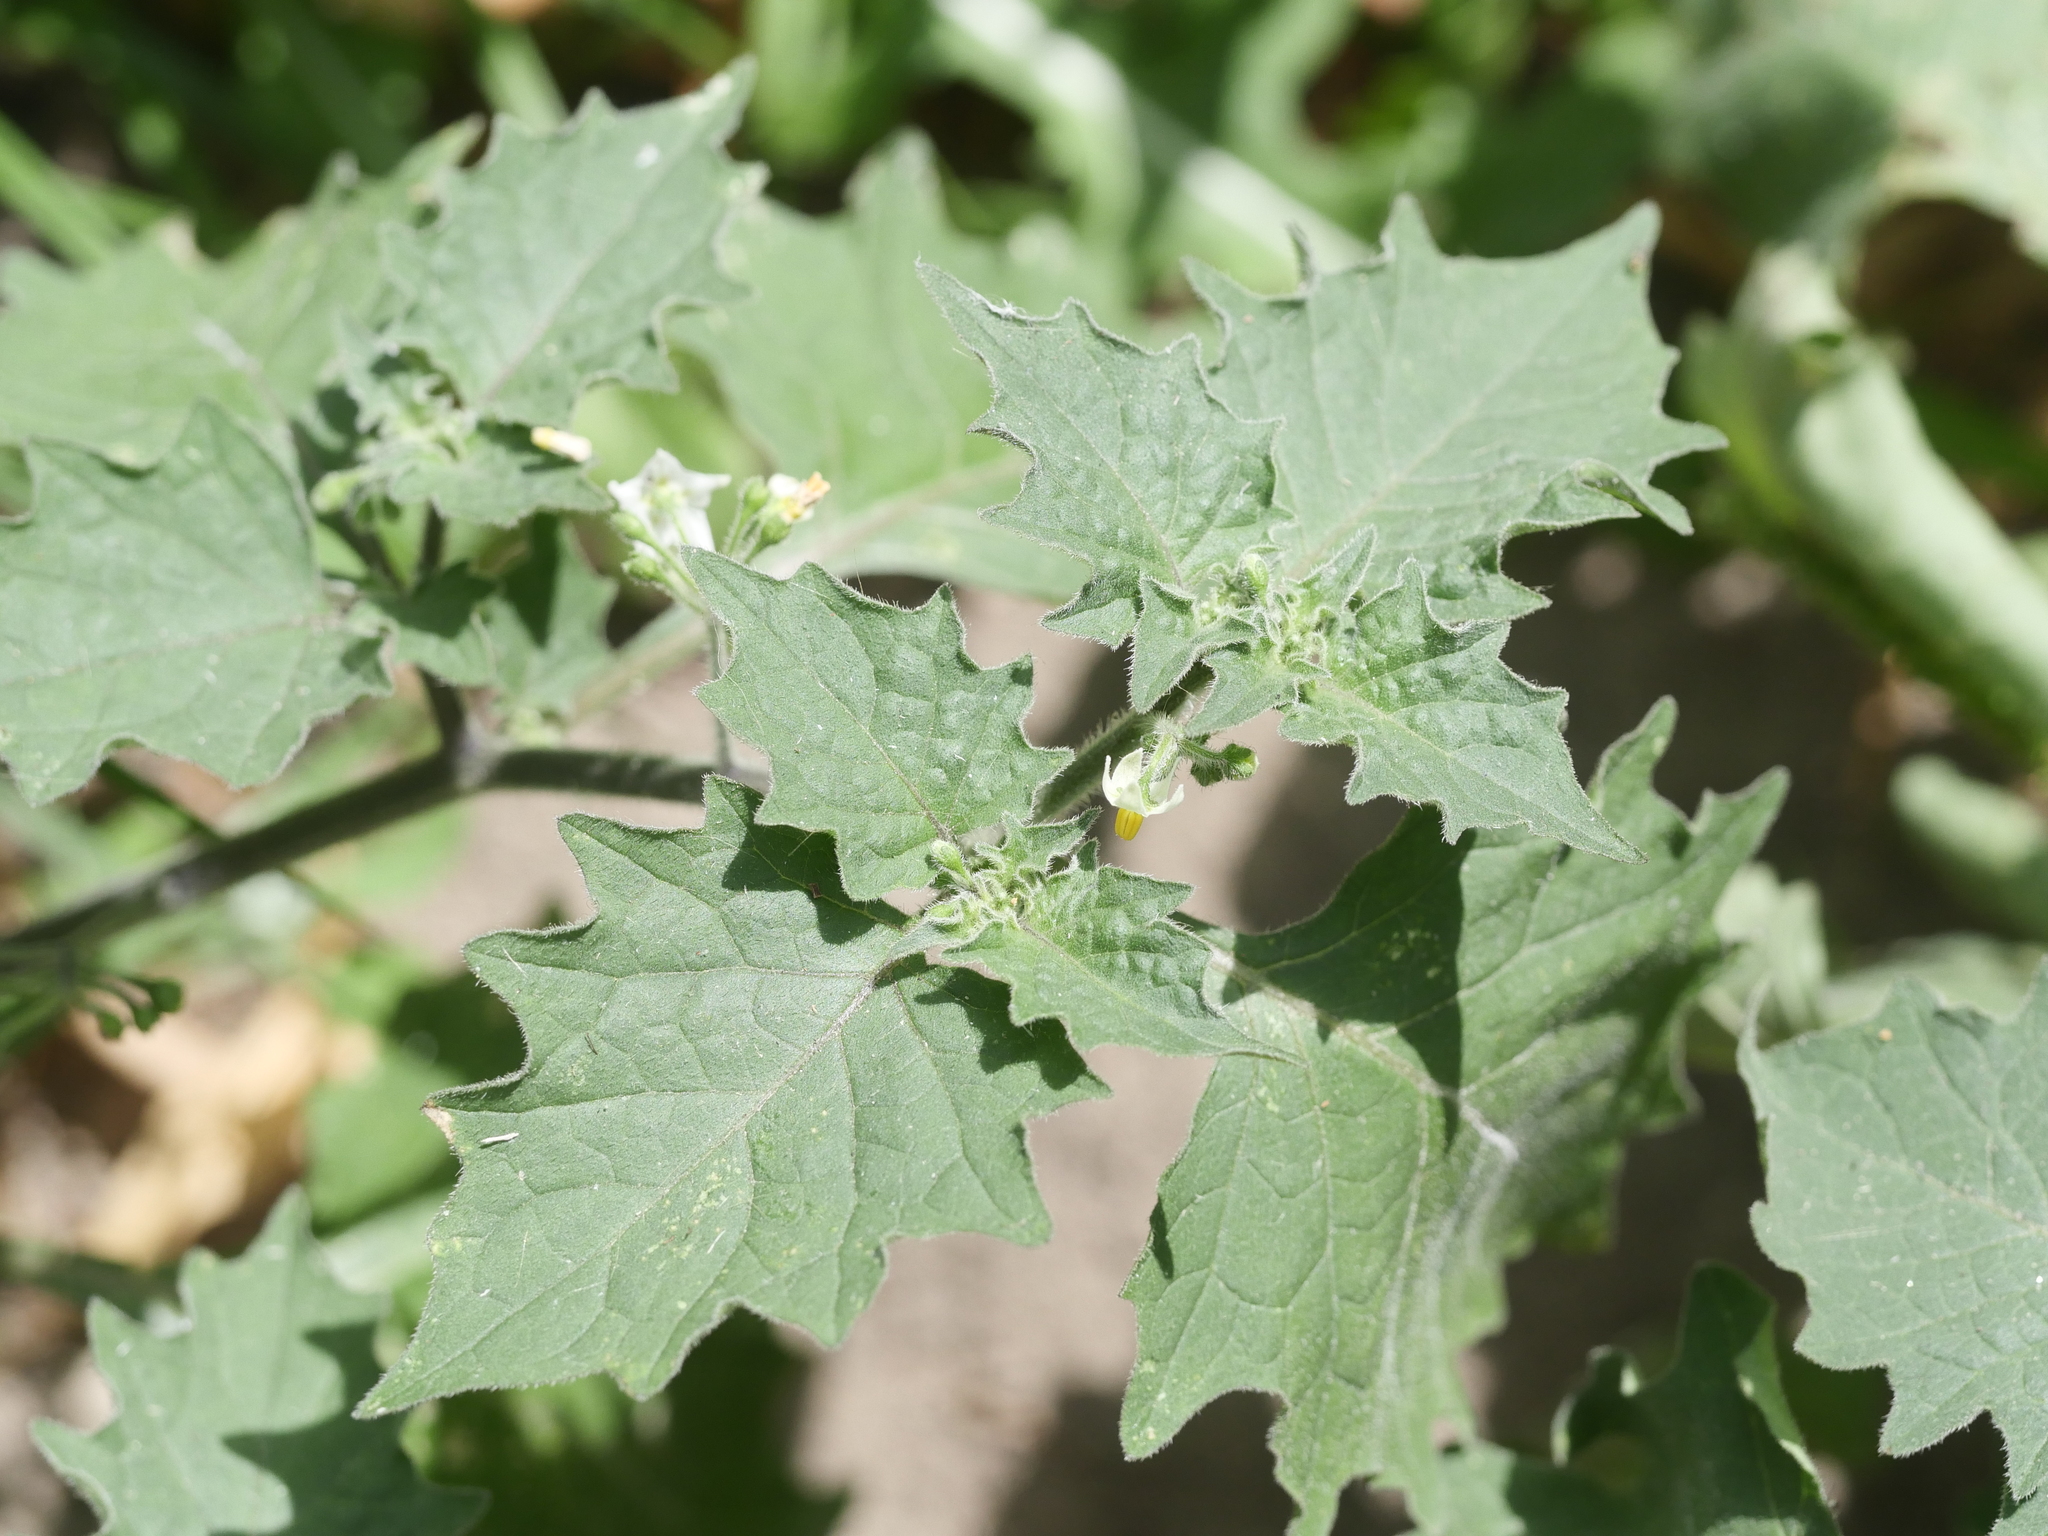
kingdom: Plantae
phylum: Tracheophyta
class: Magnoliopsida
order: Solanales
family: Solanaceae
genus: Solanum
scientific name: Solanum nigrum
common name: Black nightshade
